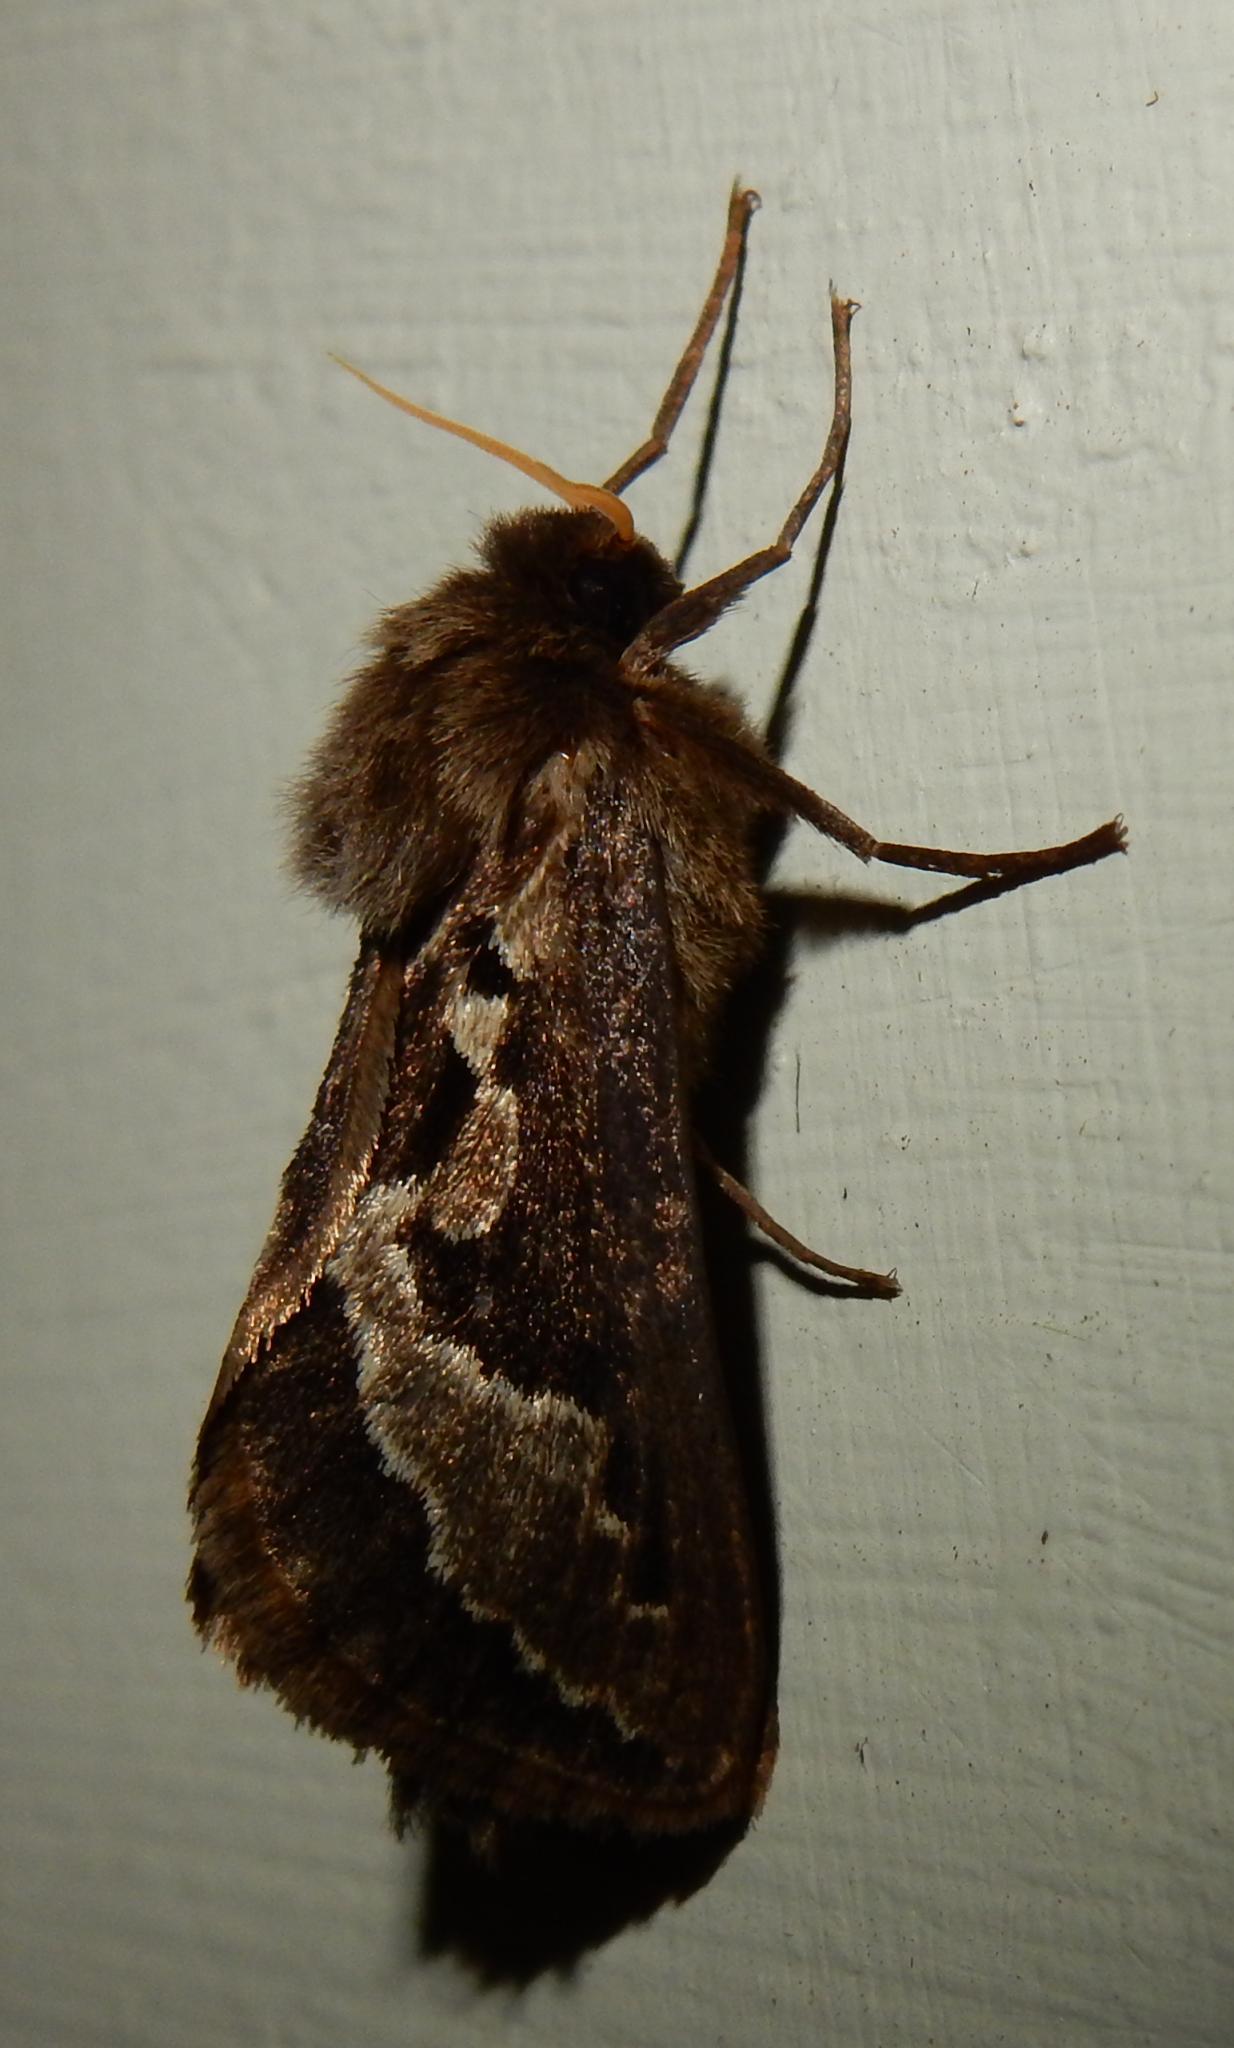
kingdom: Animalia
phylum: Arthropoda
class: Insecta
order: Lepidoptera
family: Hepialidae
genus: Eudalaca
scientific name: Eudalaca ammon
